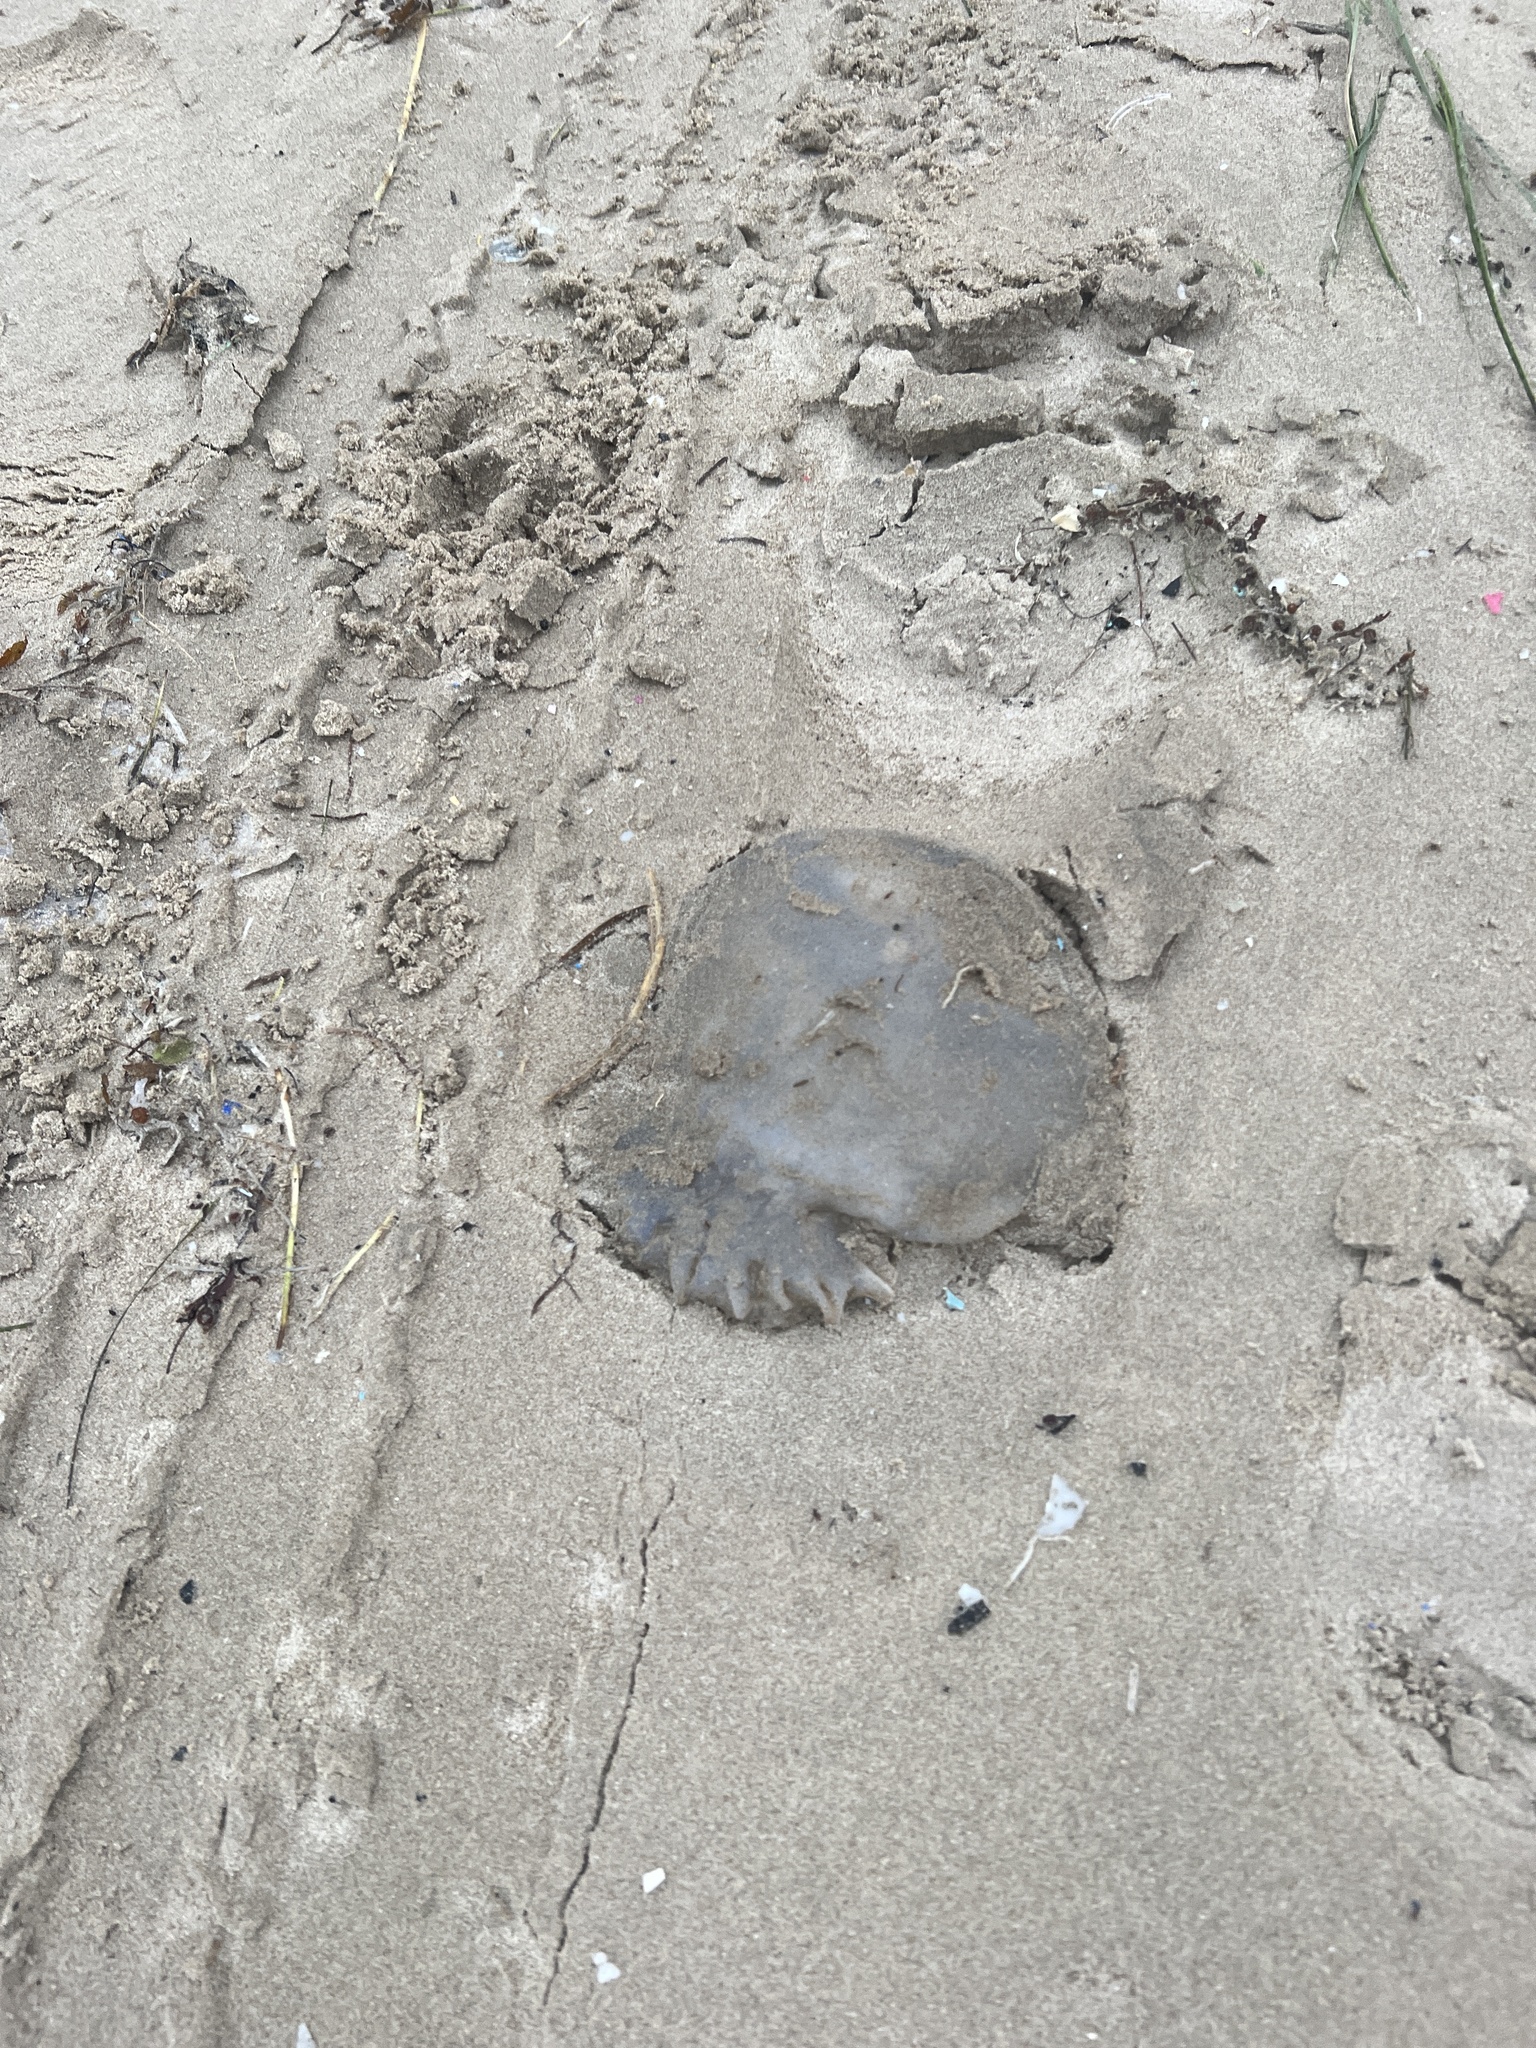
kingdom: Animalia
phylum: Cnidaria
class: Scyphozoa
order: Rhizostomeae
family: Stomolophidae
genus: Stomolophus
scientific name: Stomolophus meleagris
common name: Cabbagehead
